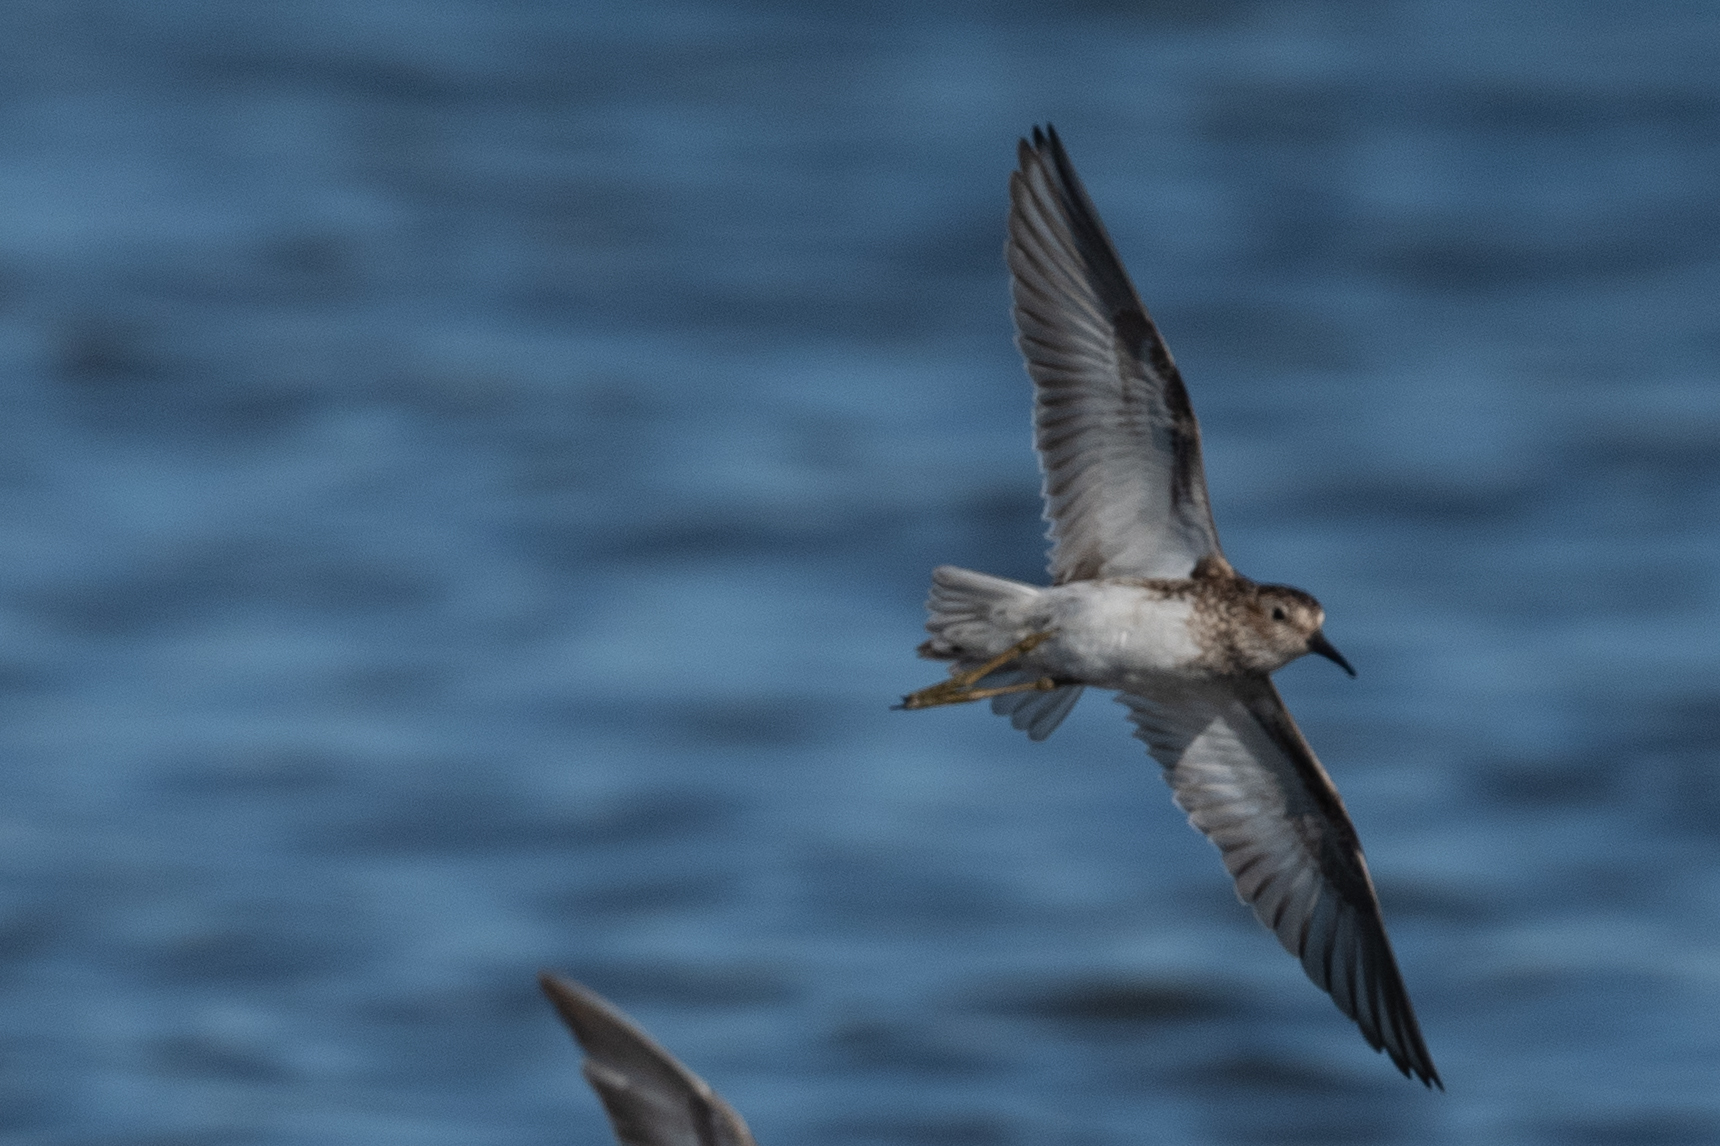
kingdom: Animalia
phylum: Chordata
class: Aves
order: Charadriiformes
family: Scolopacidae
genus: Calidris
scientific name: Calidris minutilla
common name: Least sandpiper
